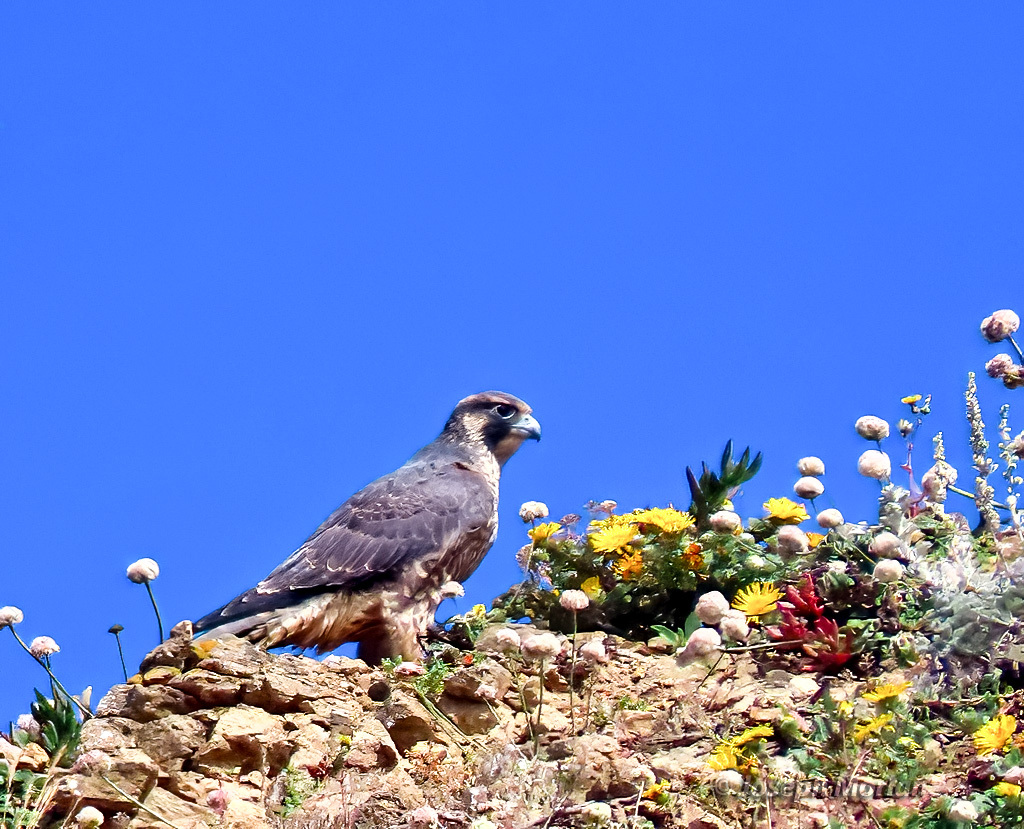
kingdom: Animalia
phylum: Chordata
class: Aves
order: Falconiformes
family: Falconidae
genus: Falco
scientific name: Falco peregrinus
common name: Peregrine falcon
